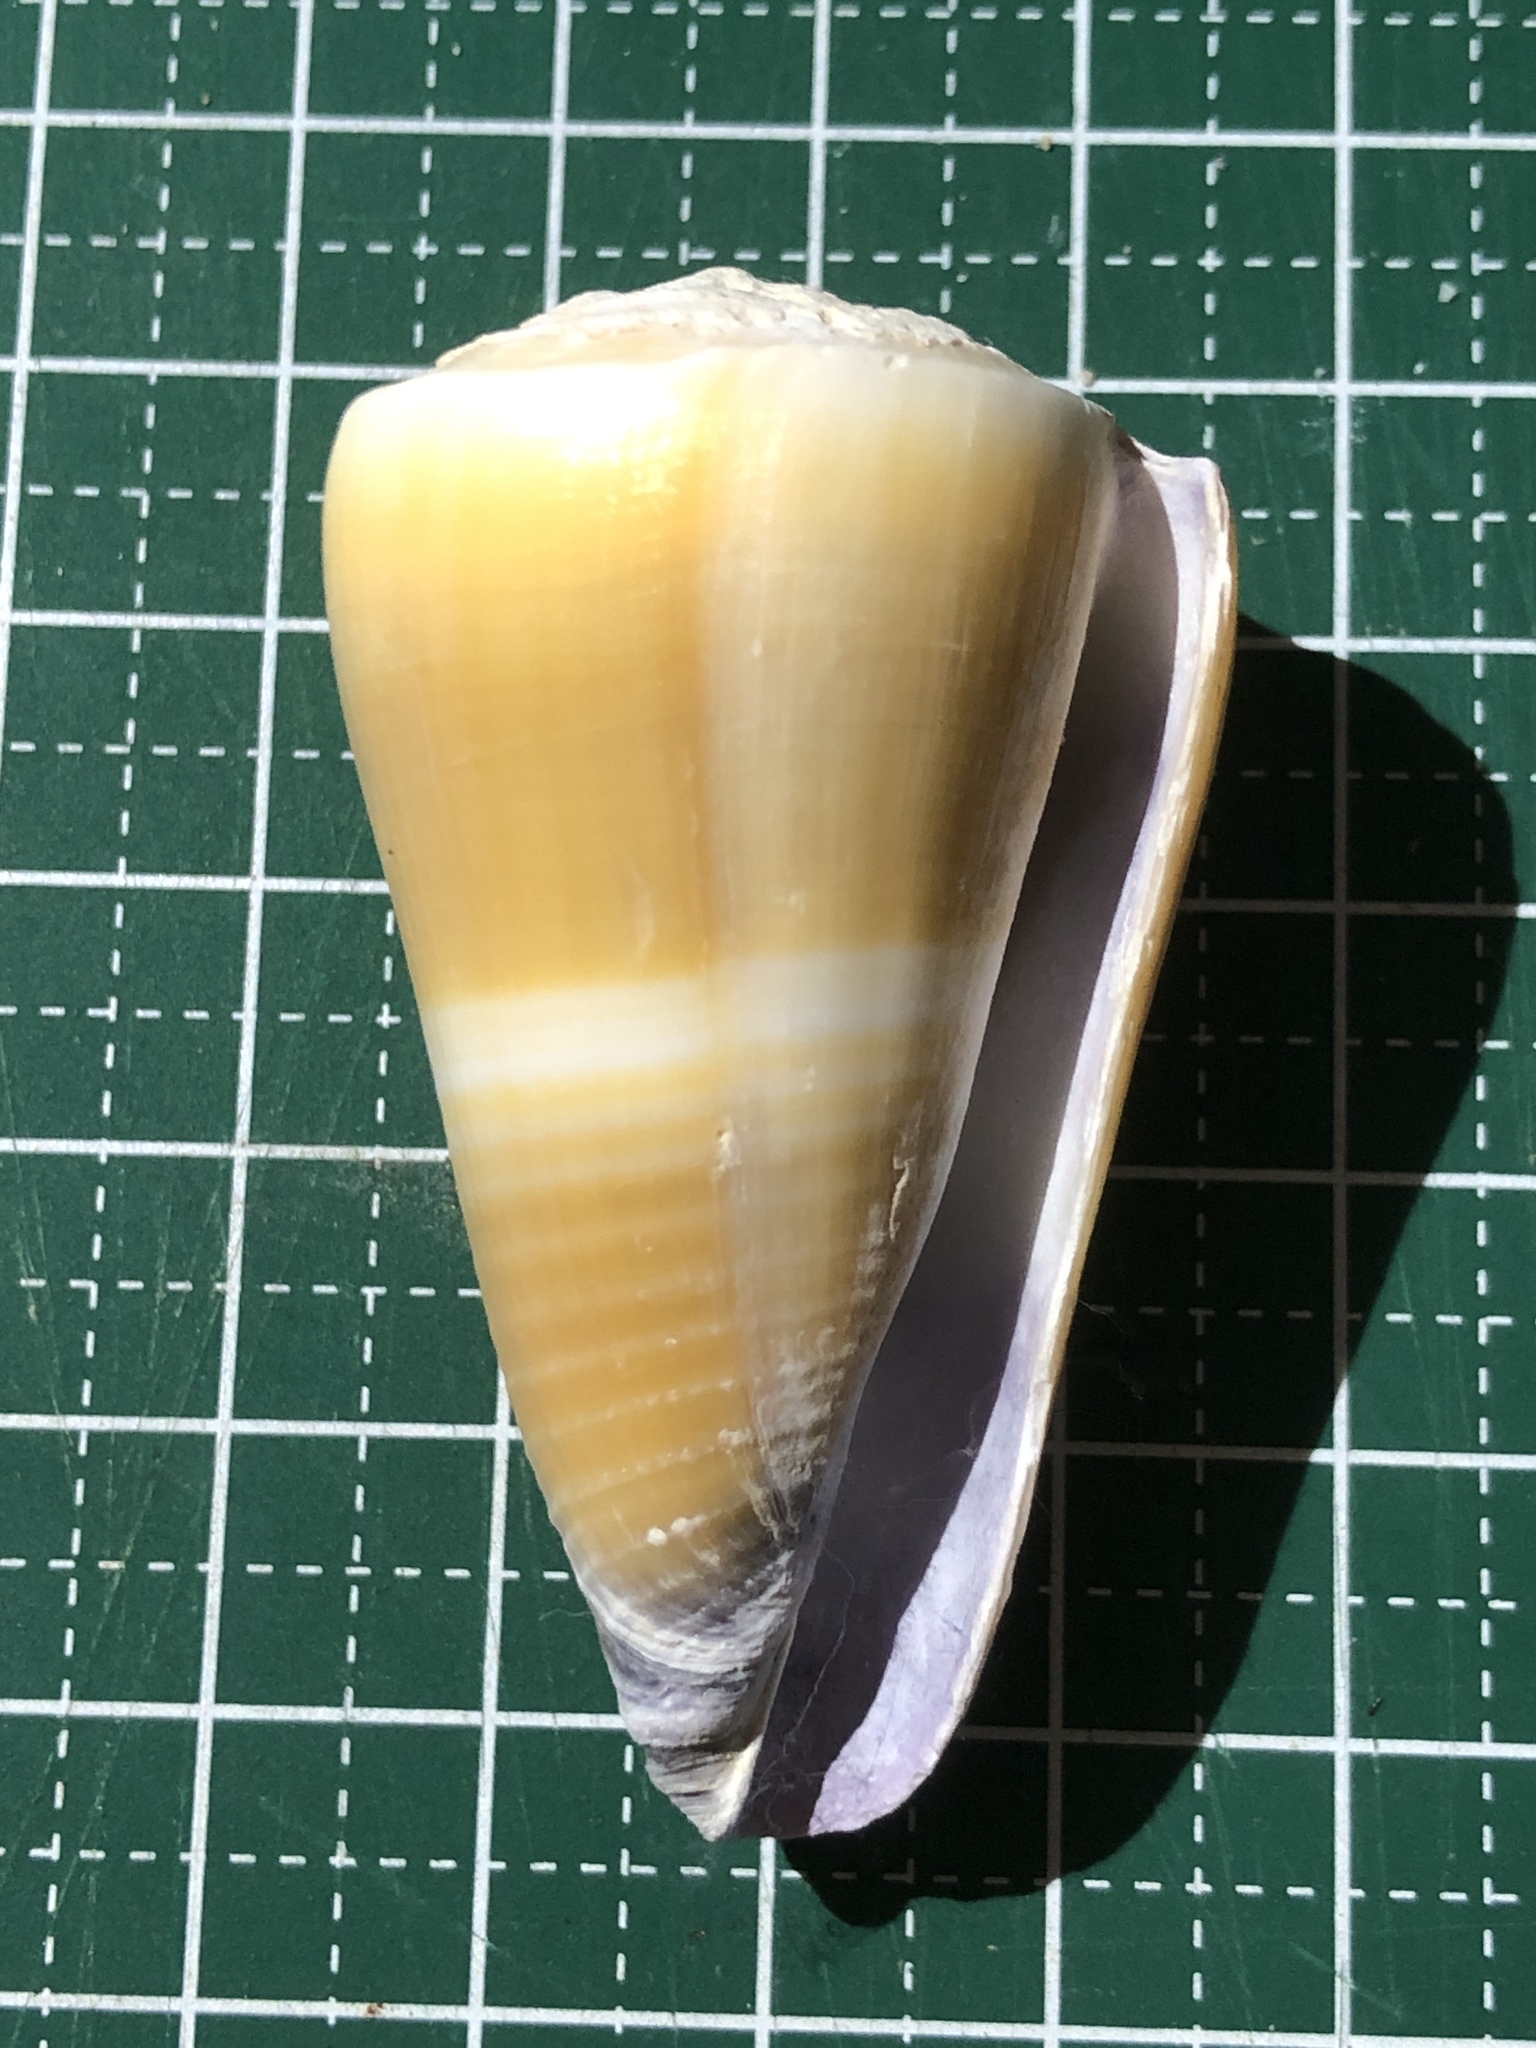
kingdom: Animalia
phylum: Mollusca
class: Gastropoda
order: Neogastropoda
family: Conidae
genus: Conus
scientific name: Conus flavidus
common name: Golden-yellow cone
